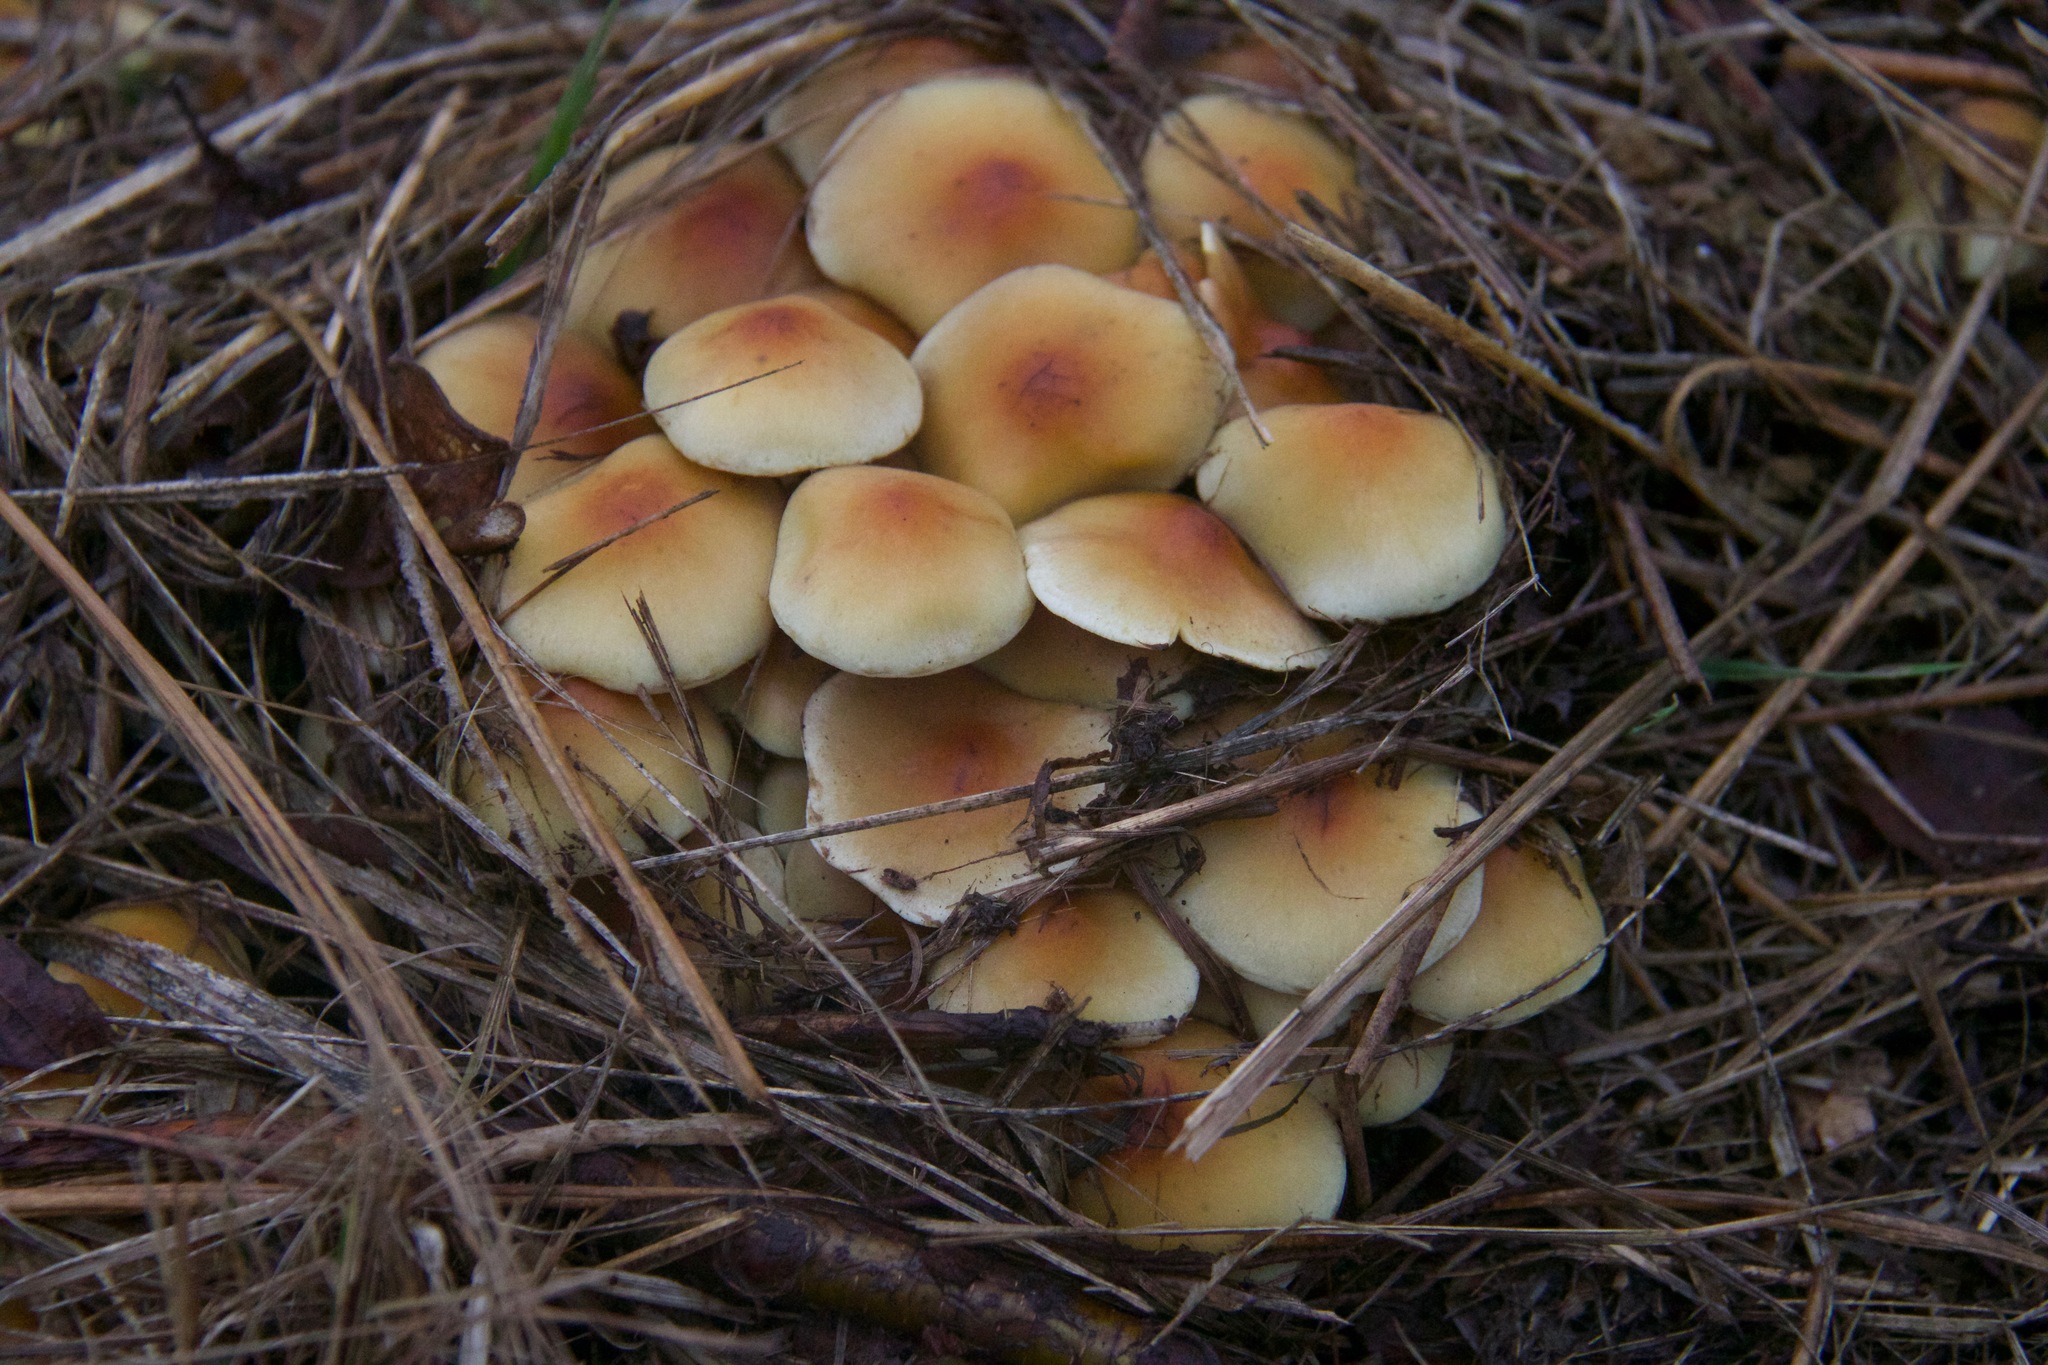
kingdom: Fungi
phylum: Basidiomycota
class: Agaricomycetes
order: Agaricales
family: Strophariaceae
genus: Hypholoma
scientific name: Hypholoma fasciculare
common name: Sulphur tuft
